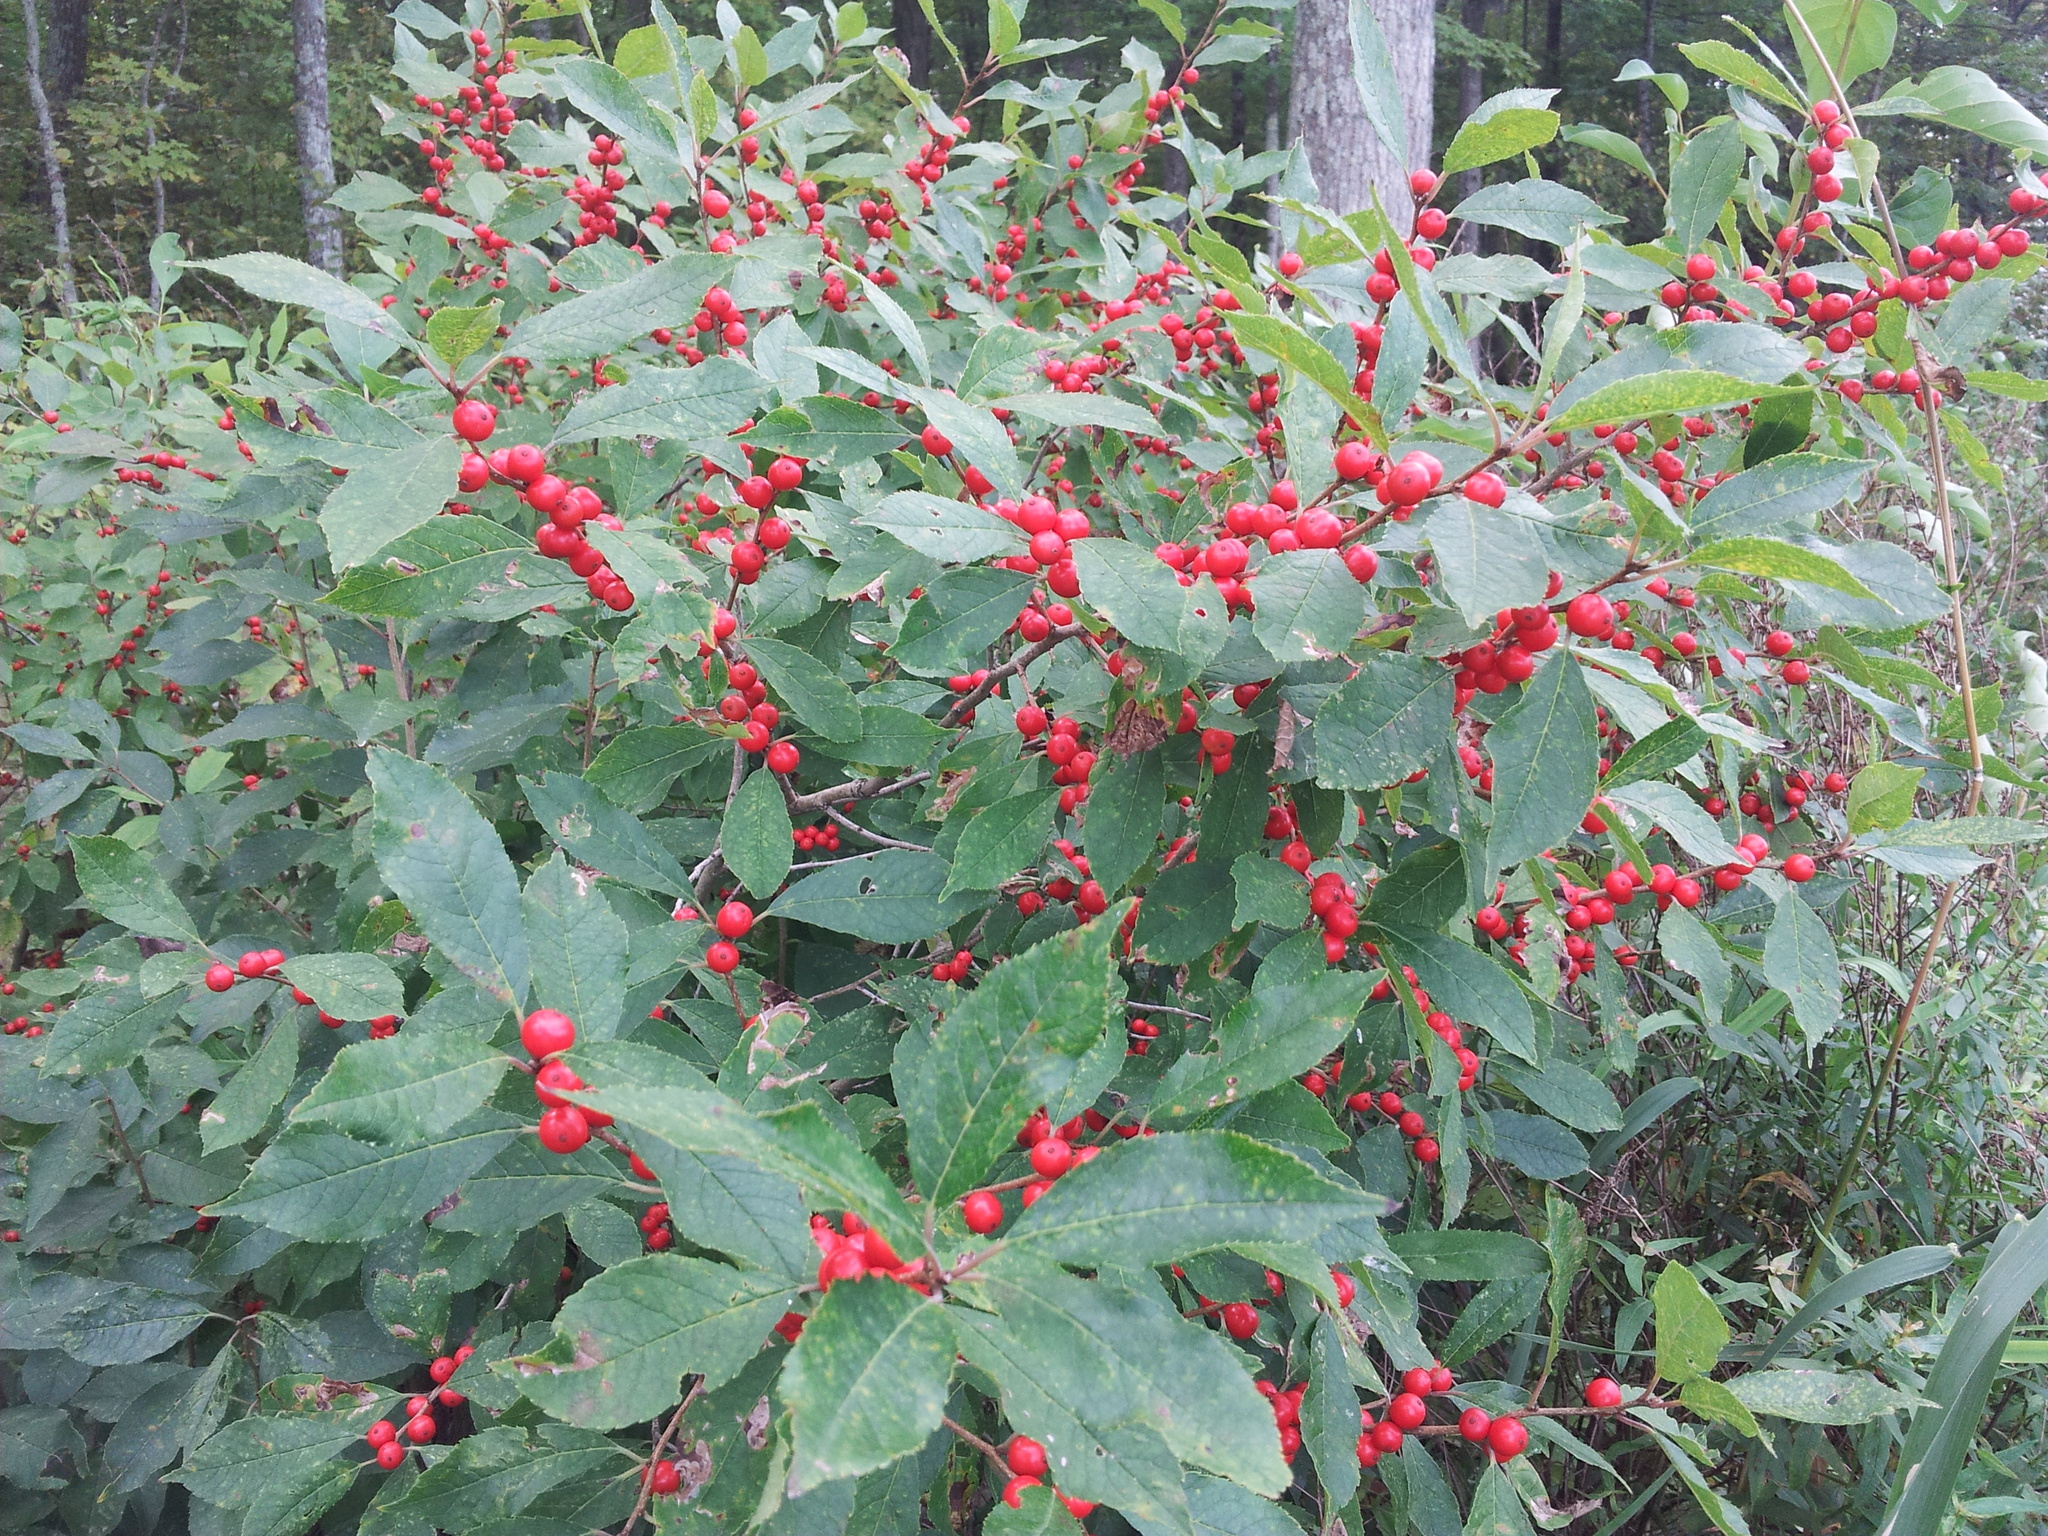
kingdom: Plantae
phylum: Tracheophyta
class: Magnoliopsida
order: Aquifoliales
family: Aquifoliaceae
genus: Ilex
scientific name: Ilex verticillata
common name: Virginia winterberry
